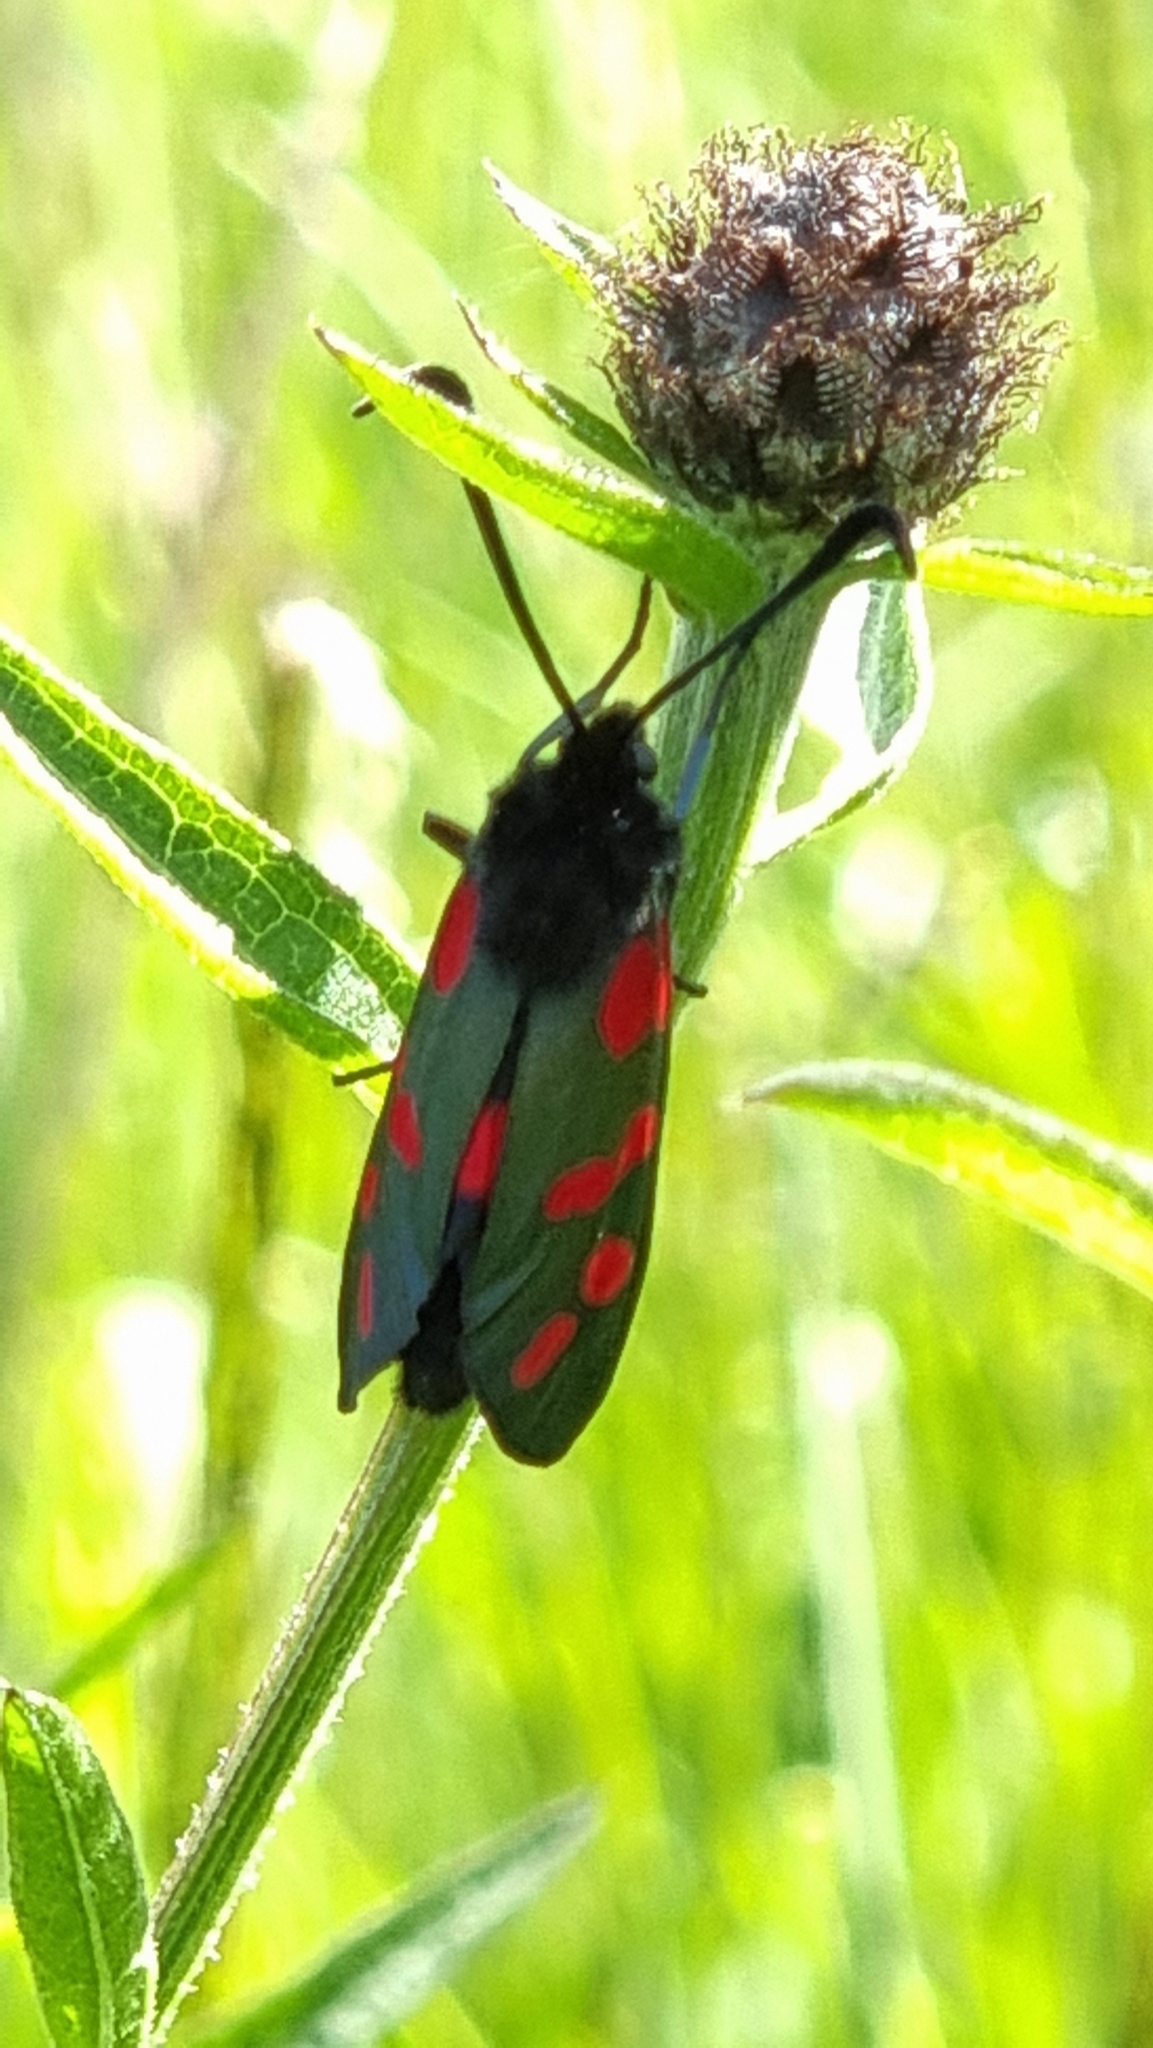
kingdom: Animalia
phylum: Arthropoda
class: Insecta
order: Lepidoptera
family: Zygaenidae
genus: Zygaena
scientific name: Zygaena filipendulae
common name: Six-spot burnet
